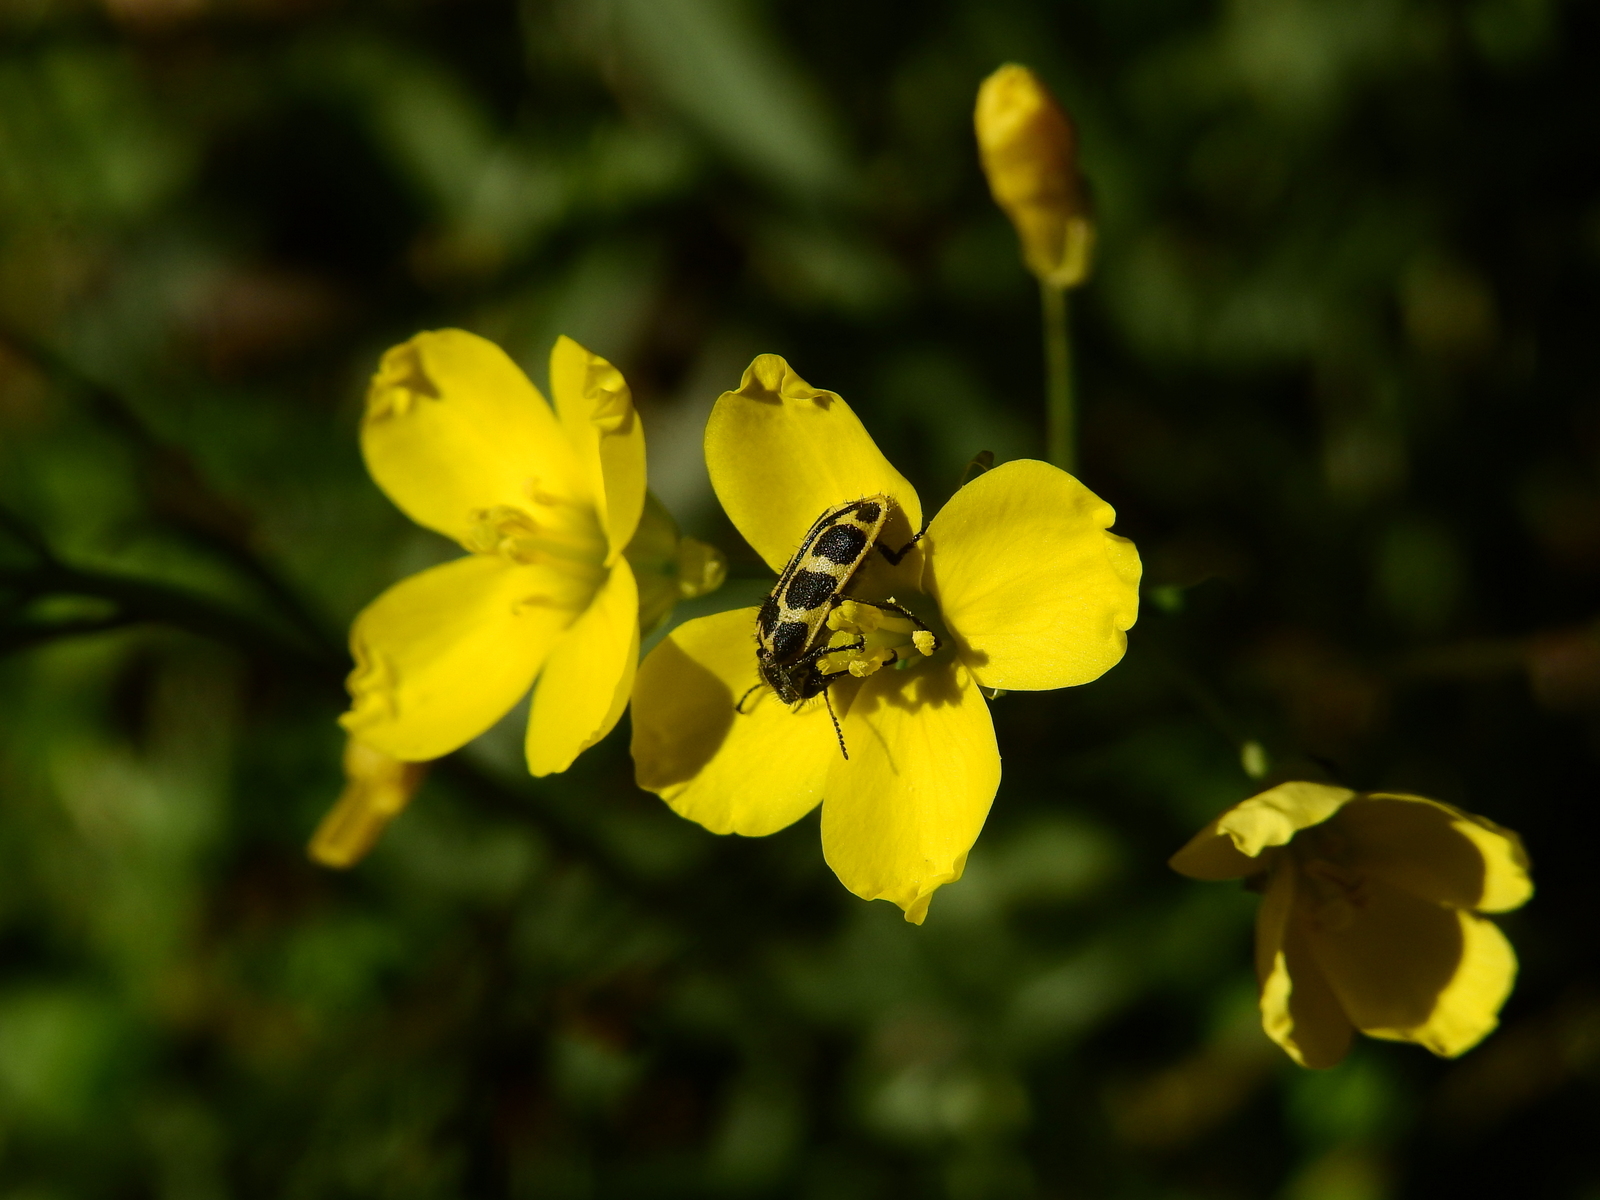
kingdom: Animalia
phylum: Arthropoda
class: Insecta
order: Coleoptera
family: Melyridae
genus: Astylus
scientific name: Astylus atromaculatus
